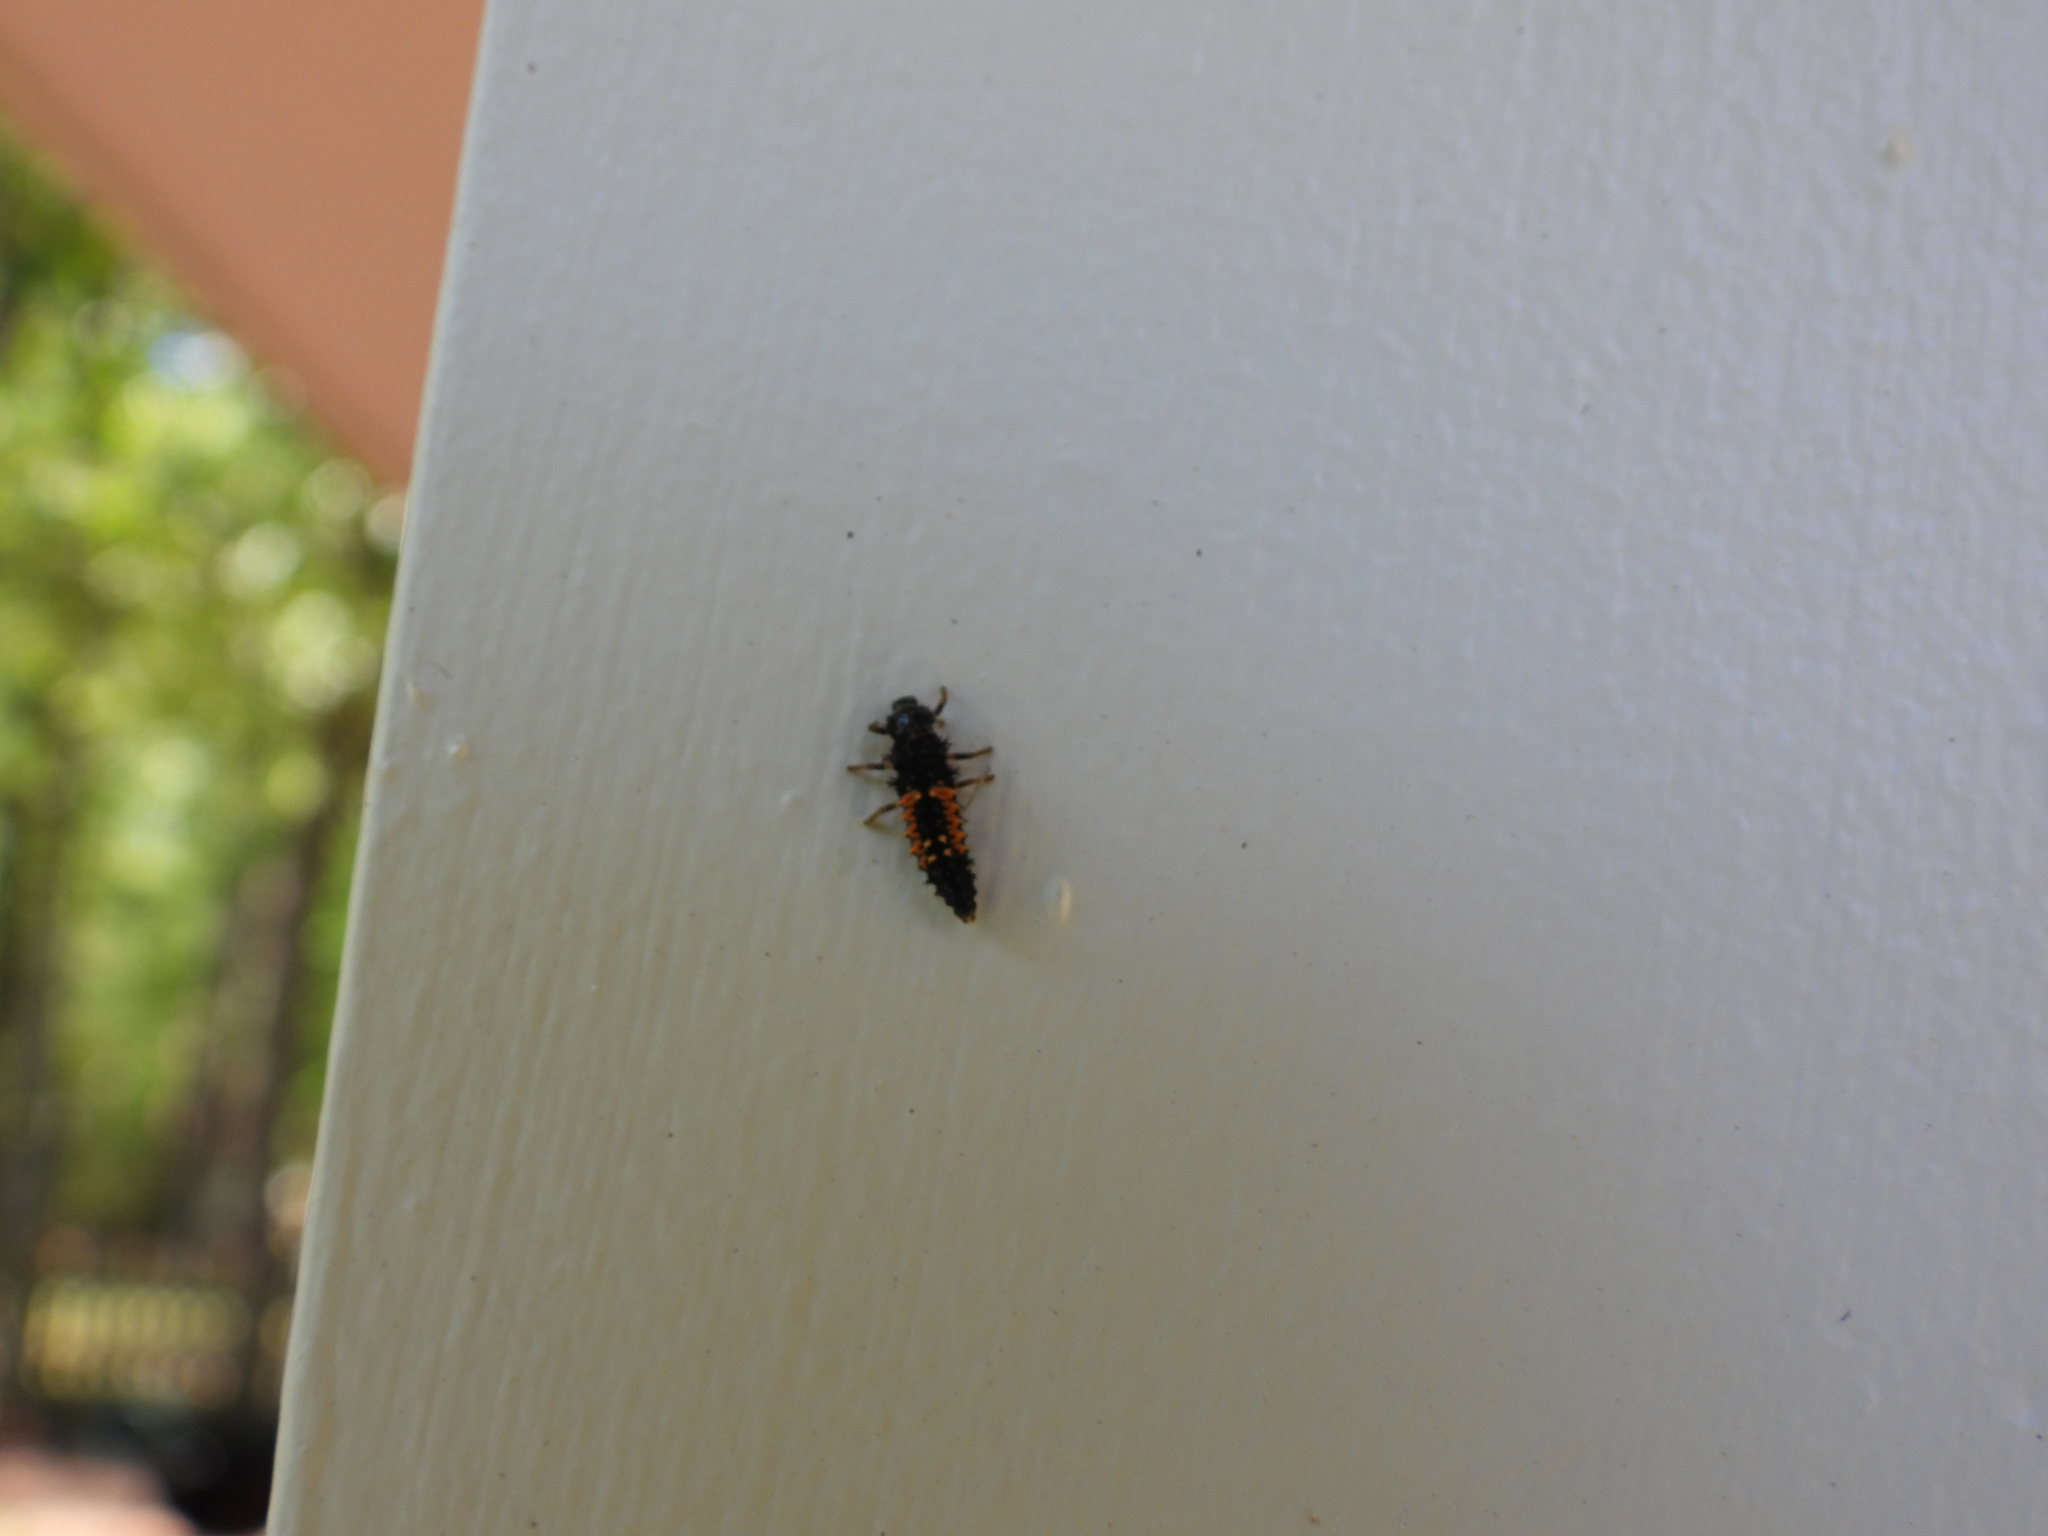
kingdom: Animalia
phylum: Arthropoda
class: Insecta
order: Coleoptera
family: Coccinellidae
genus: Harmonia
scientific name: Harmonia axyridis
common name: Harlequin ladybird
